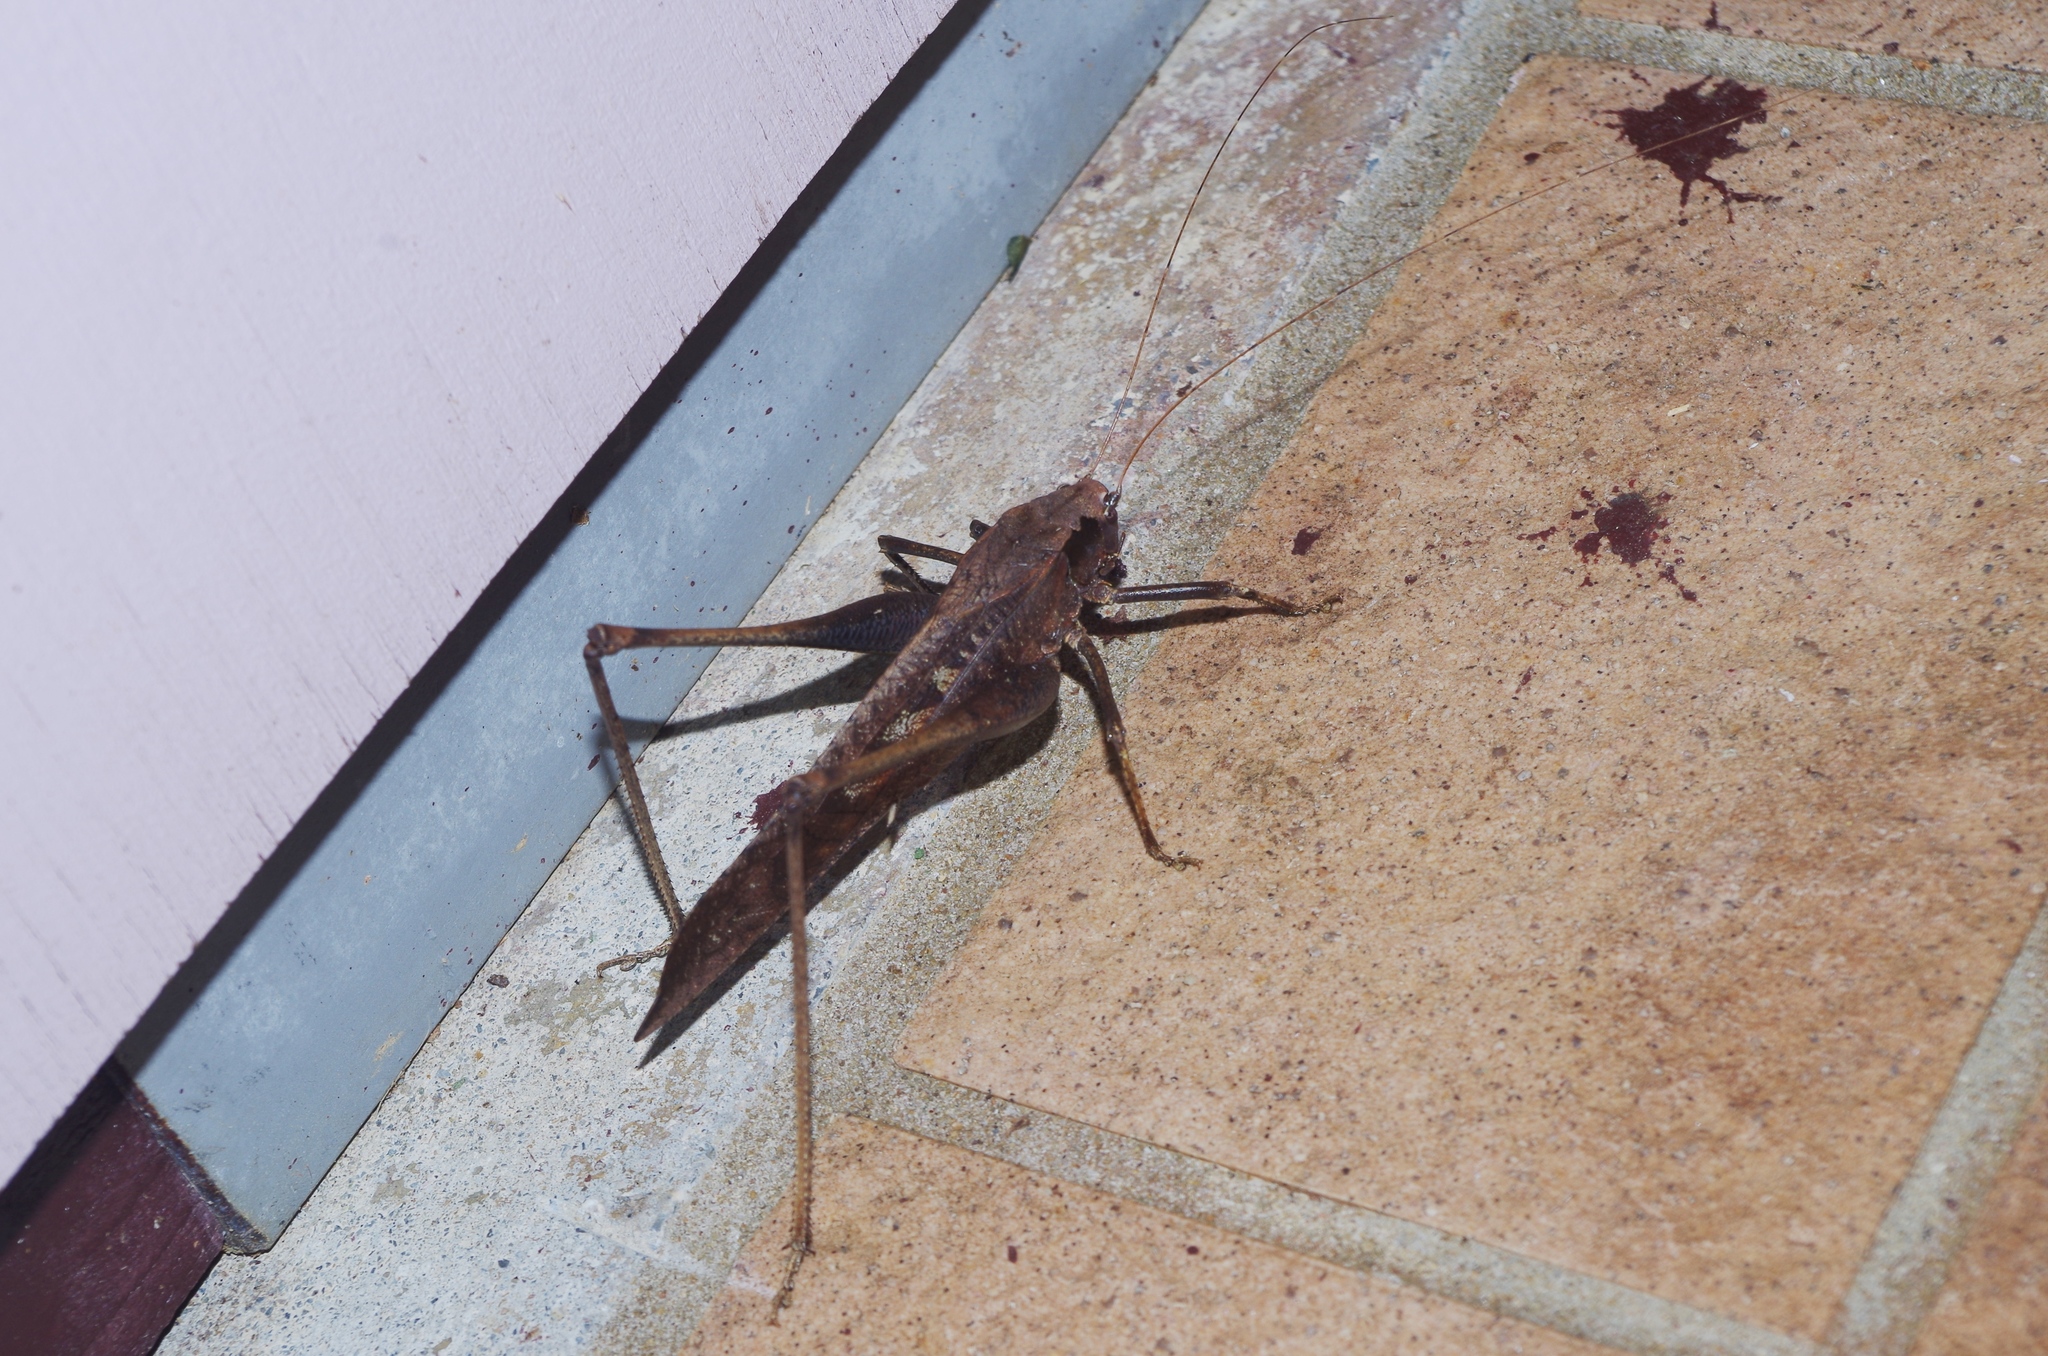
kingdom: Animalia
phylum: Arthropoda
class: Insecta
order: Orthoptera
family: Tettigoniidae
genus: Mecopoda
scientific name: Mecopoda elongata
